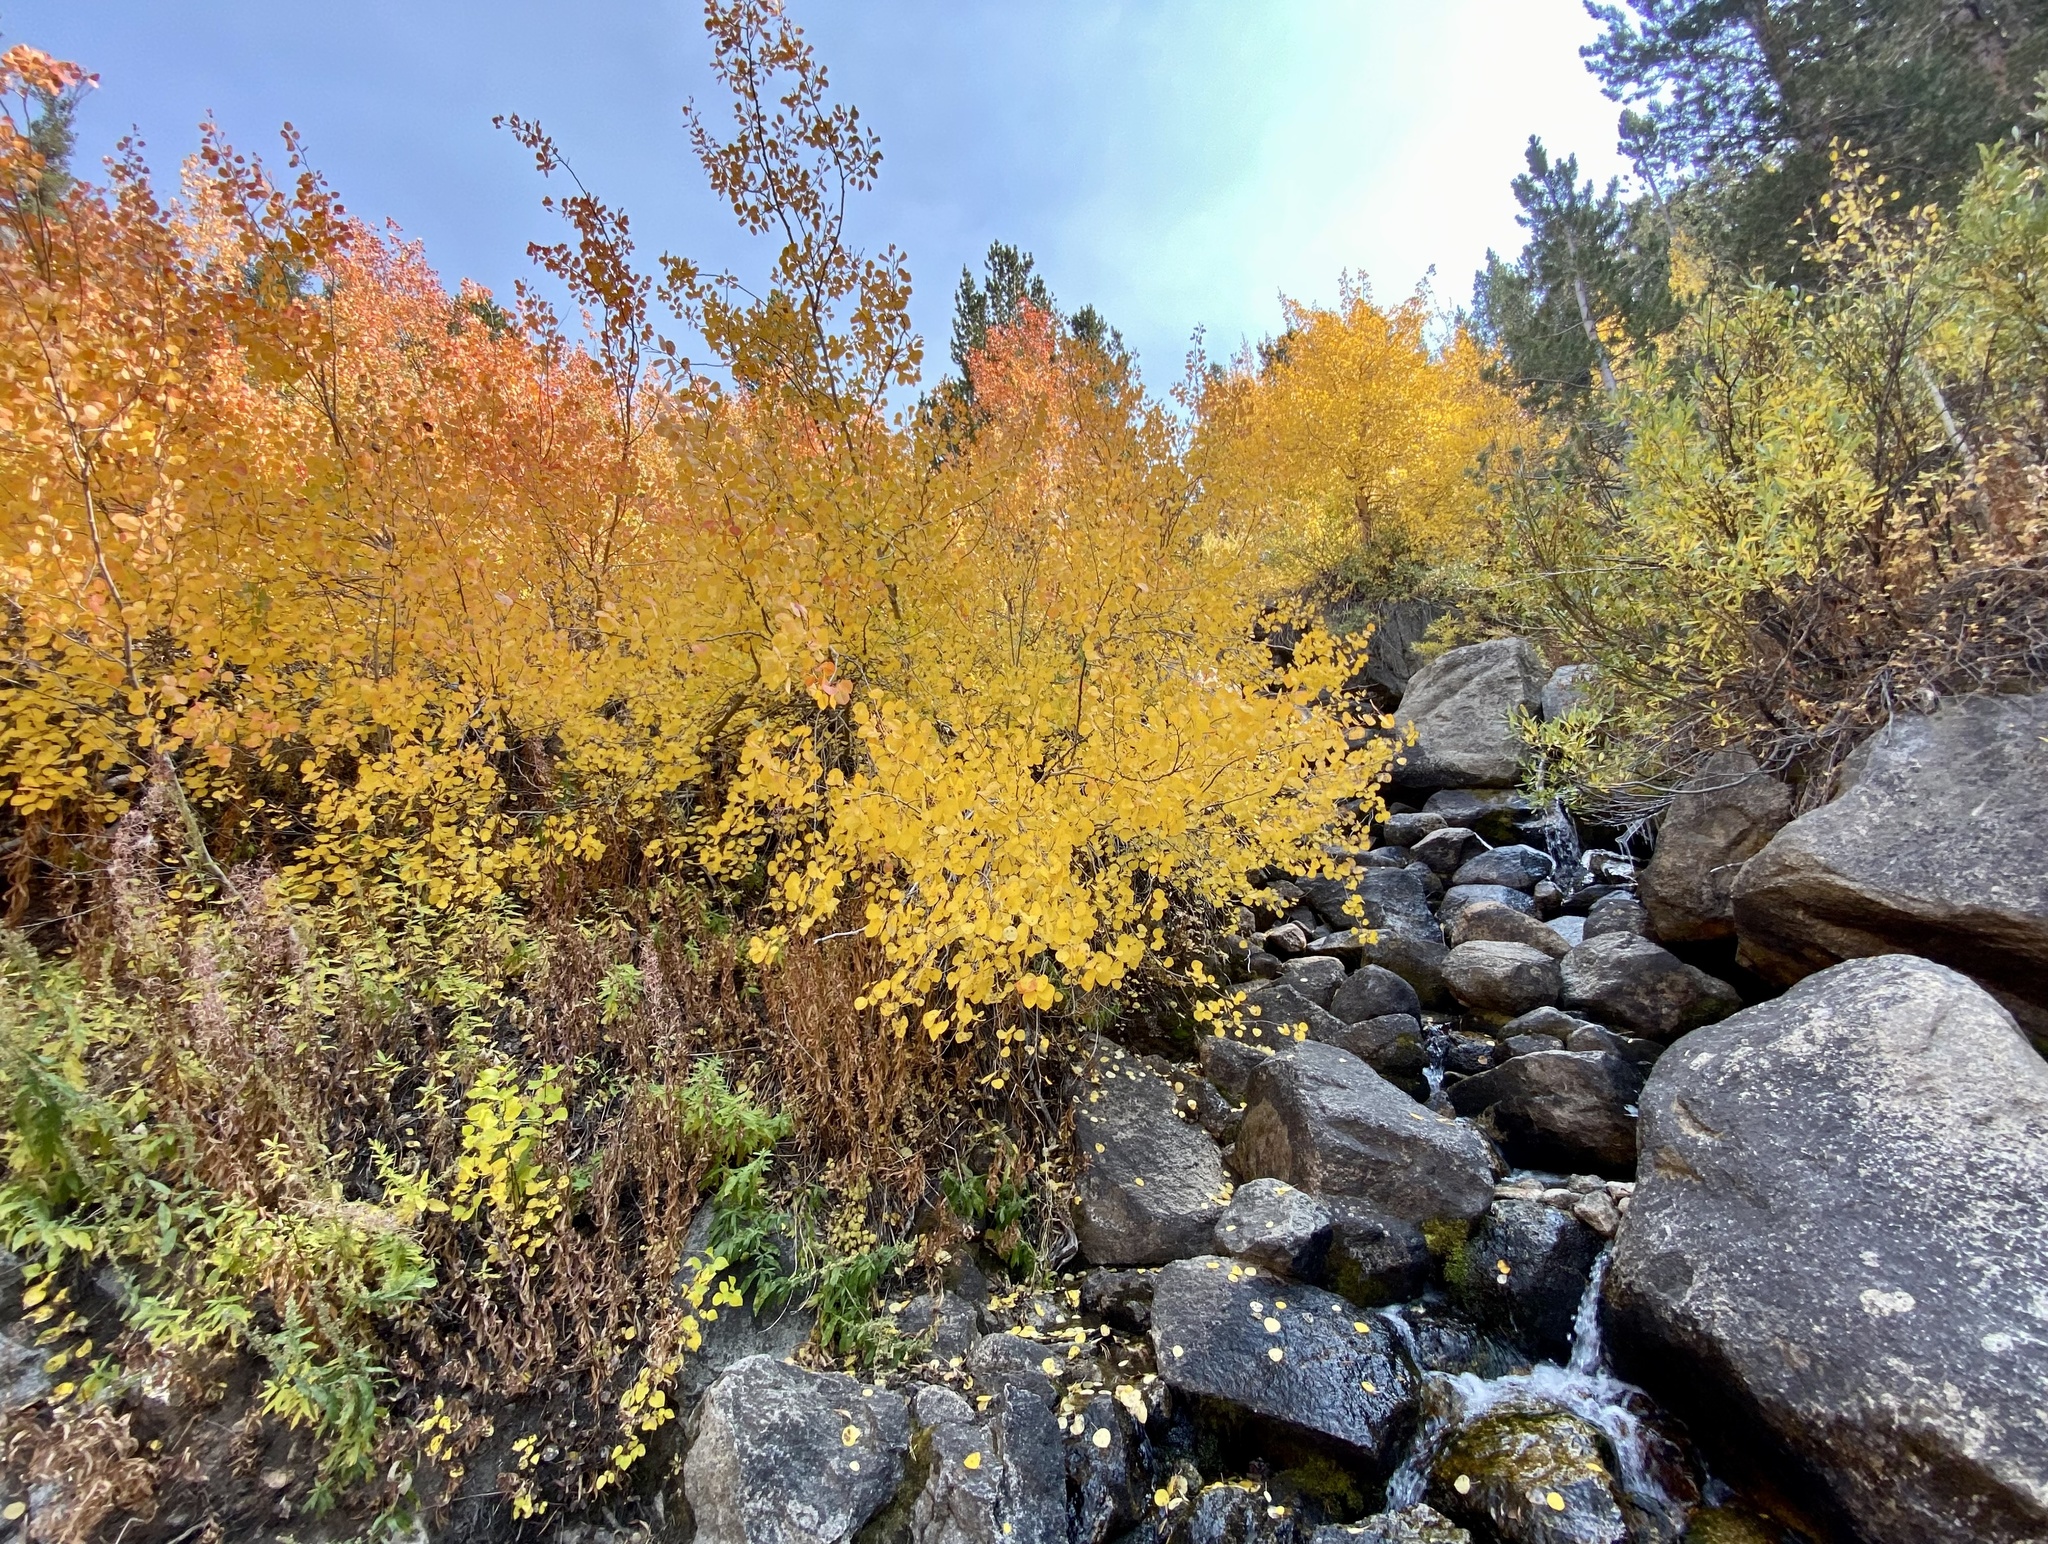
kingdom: Plantae
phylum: Tracheophyta
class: Magnoliopsida
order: Malpighiales
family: Salicaceae
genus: Populus
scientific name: Populus tremuloides
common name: Quaking aspen
